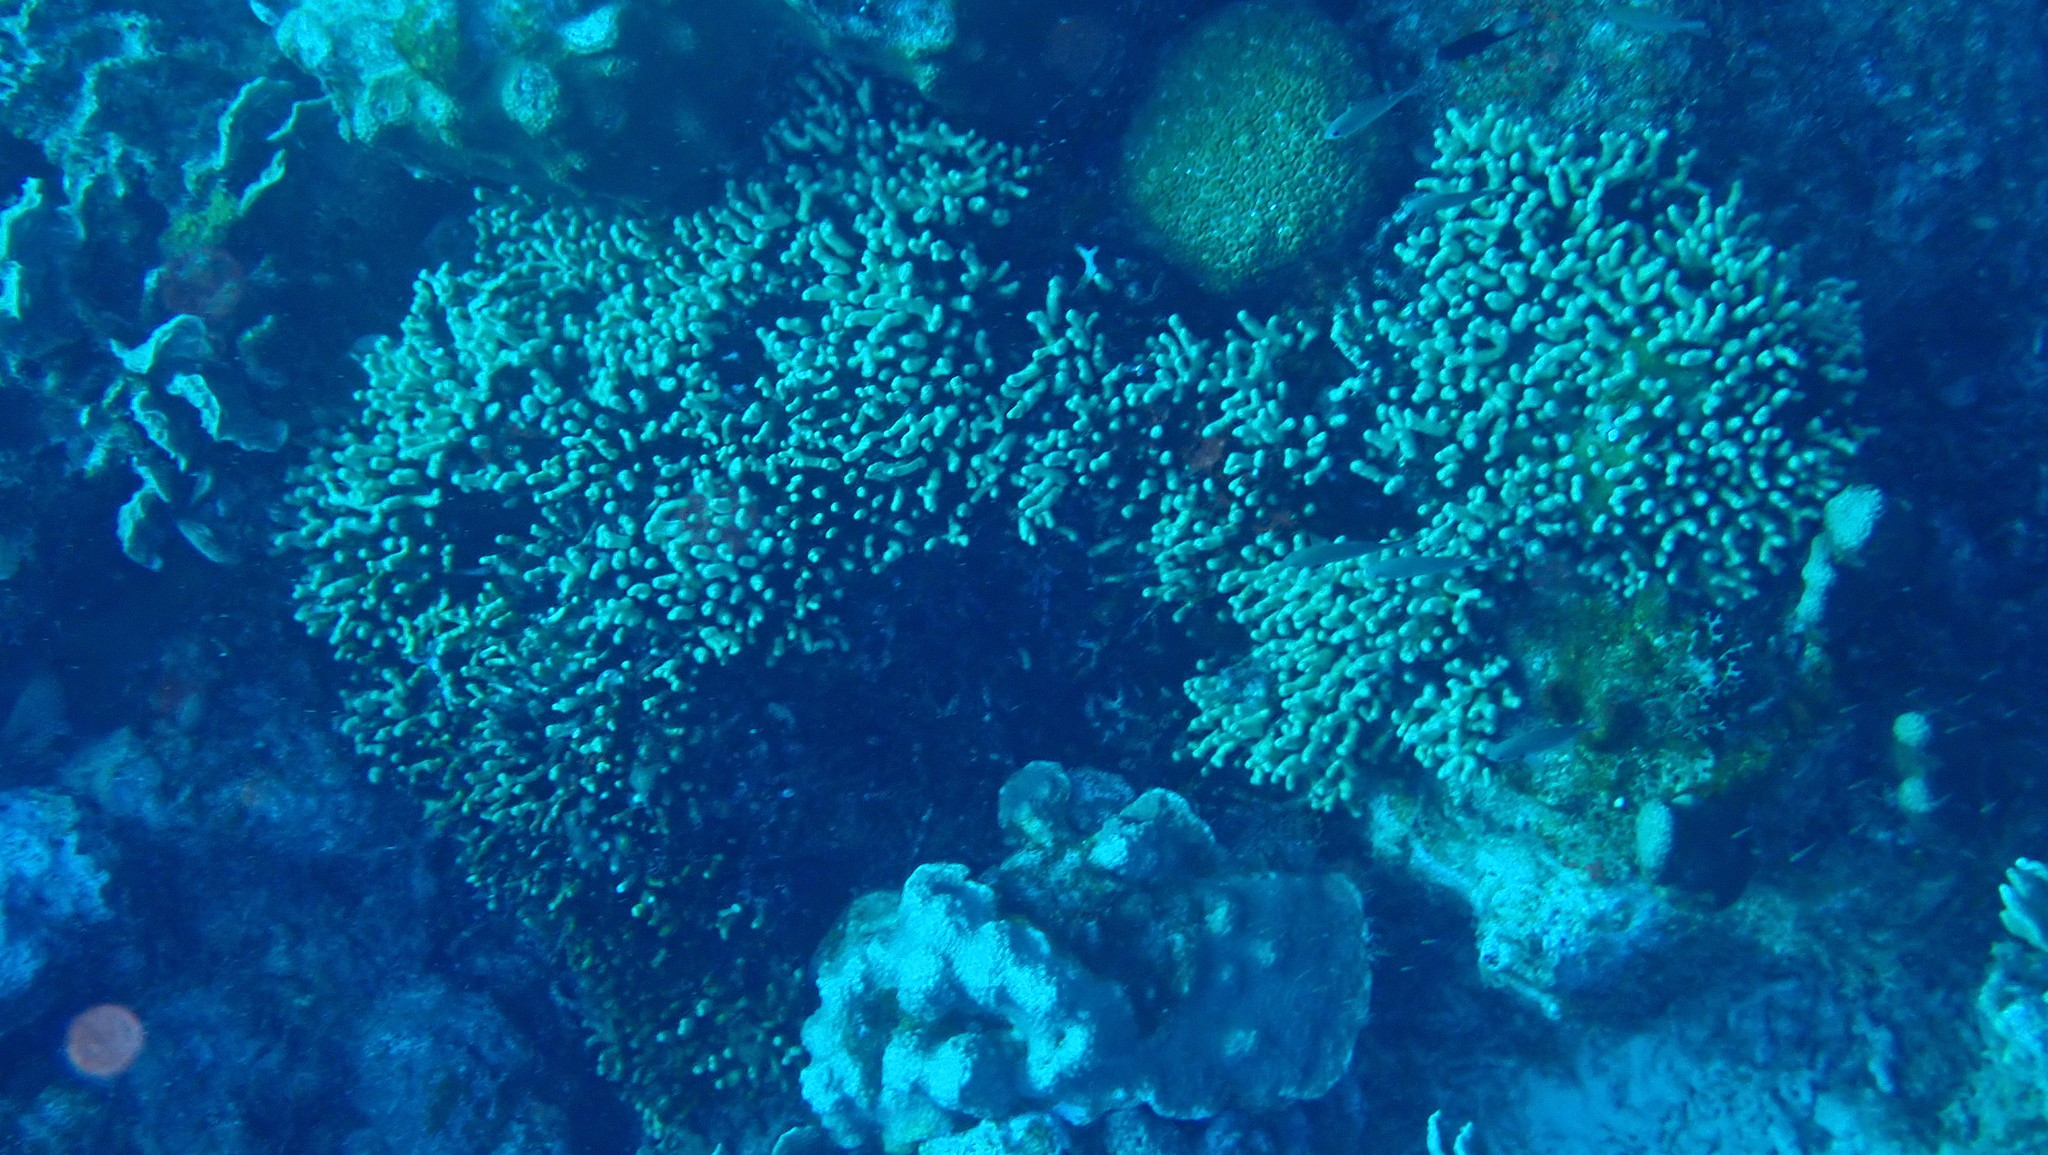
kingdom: Animalia
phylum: Cnidaria
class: Anthozoa
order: Scleractinia
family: Poritidae
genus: Porites
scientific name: Porites porites
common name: Finger coral
